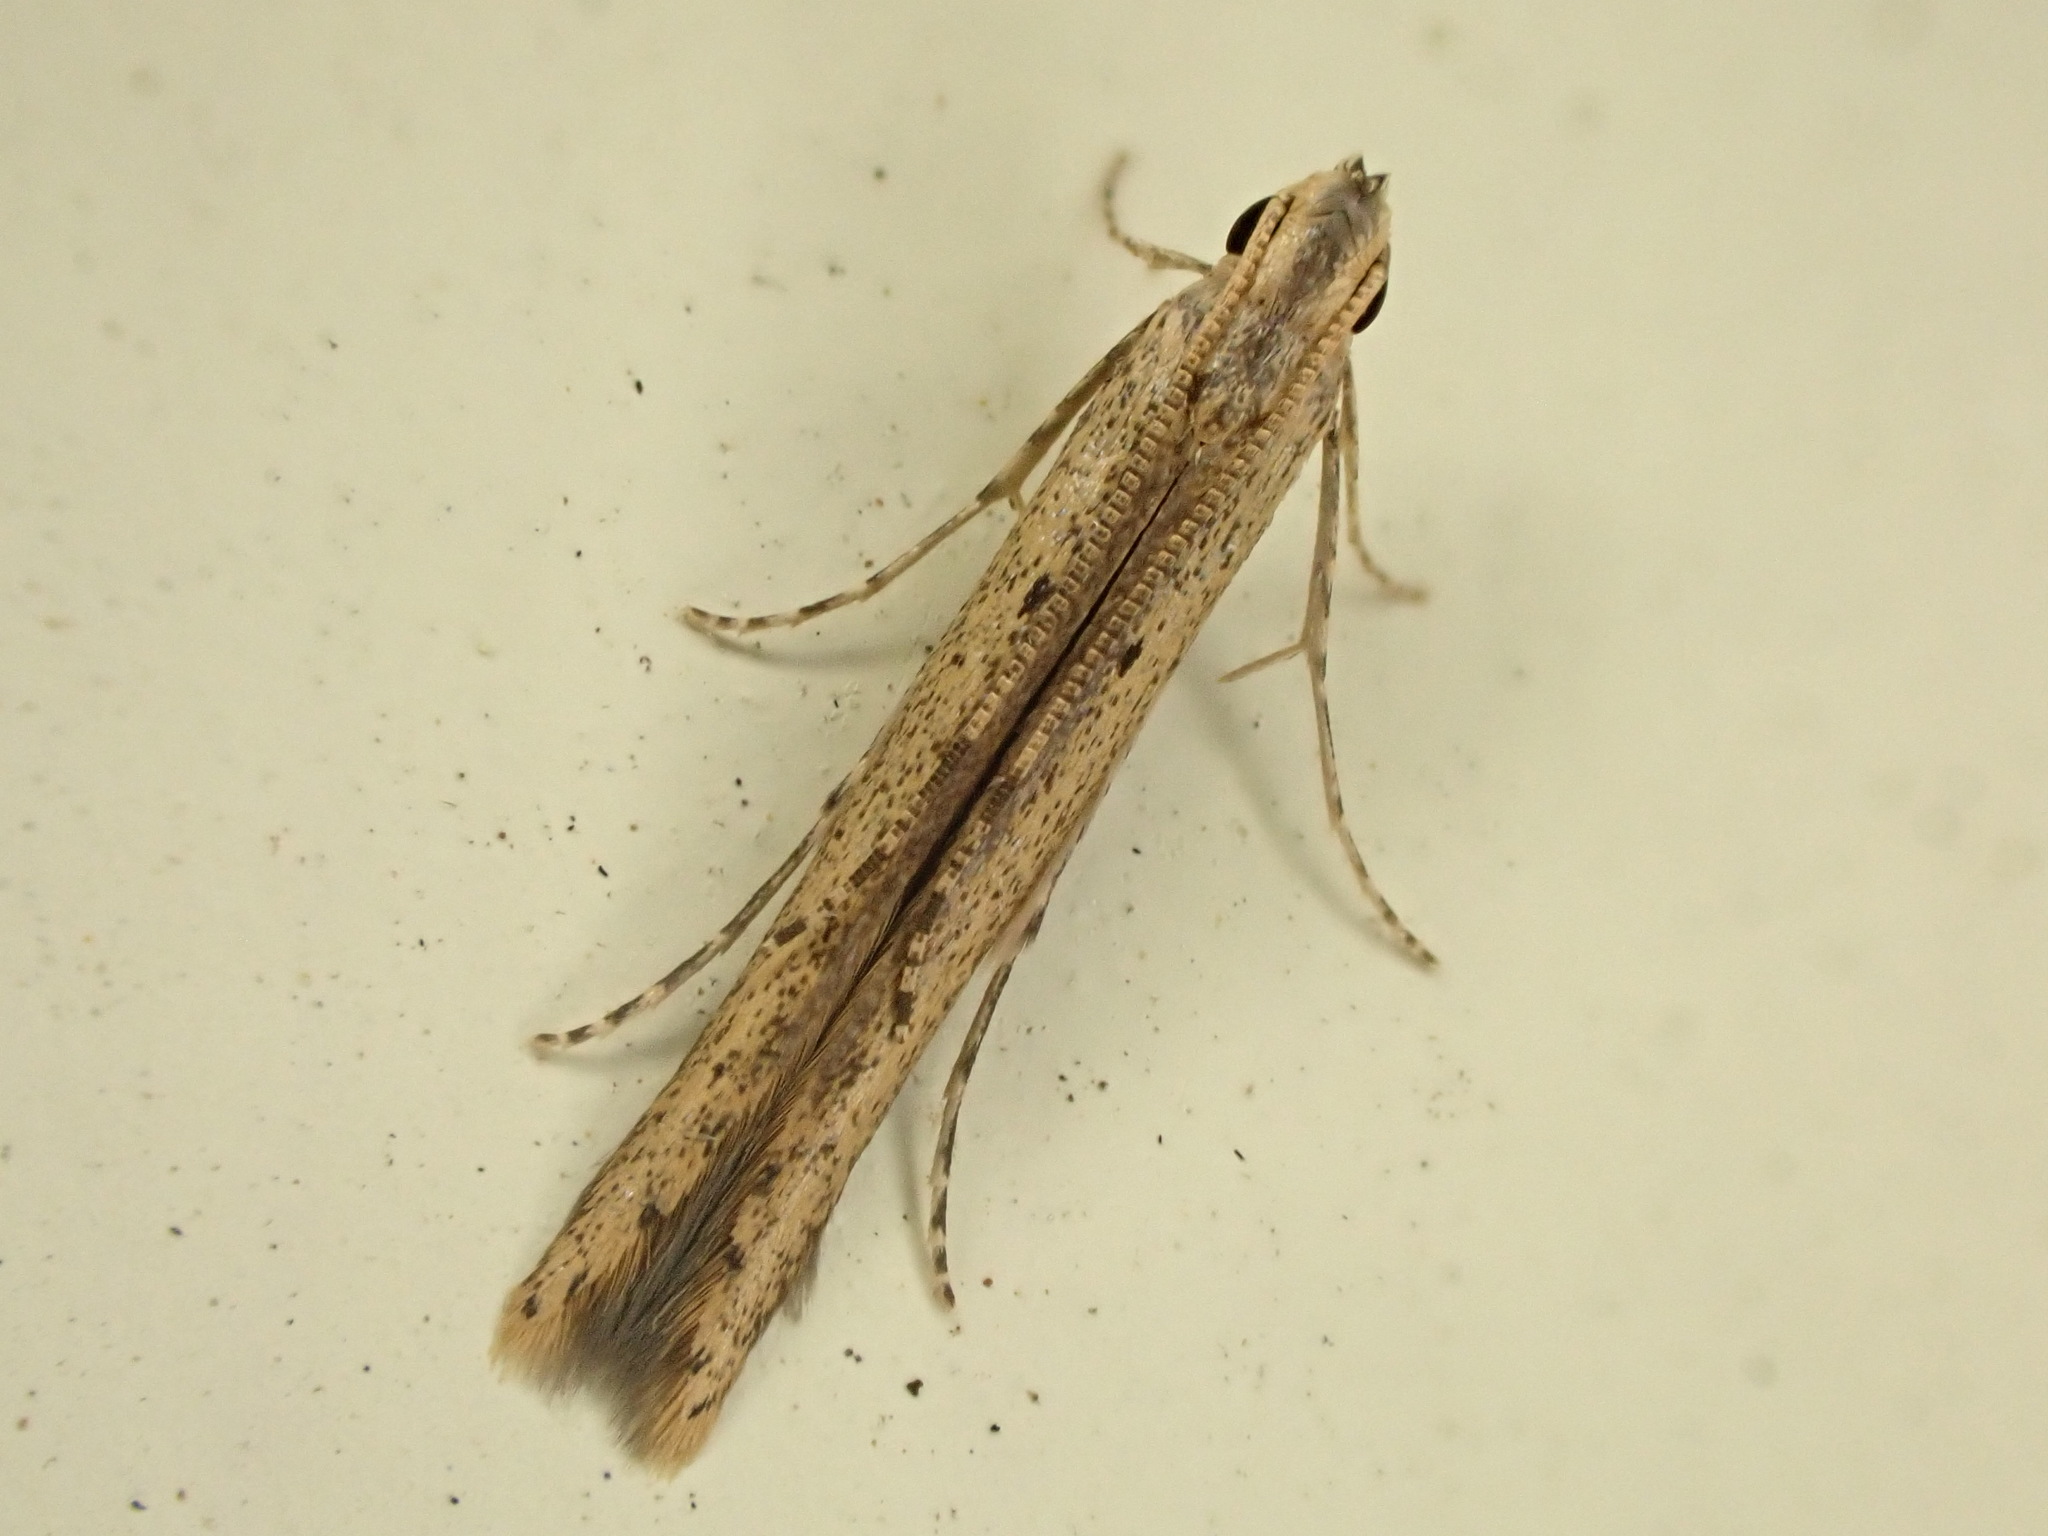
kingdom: Animalia
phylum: Arthropoda
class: Insecta
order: Lepidoptera
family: Batrachedridae
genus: Batrachedra
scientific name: Batrachedra
